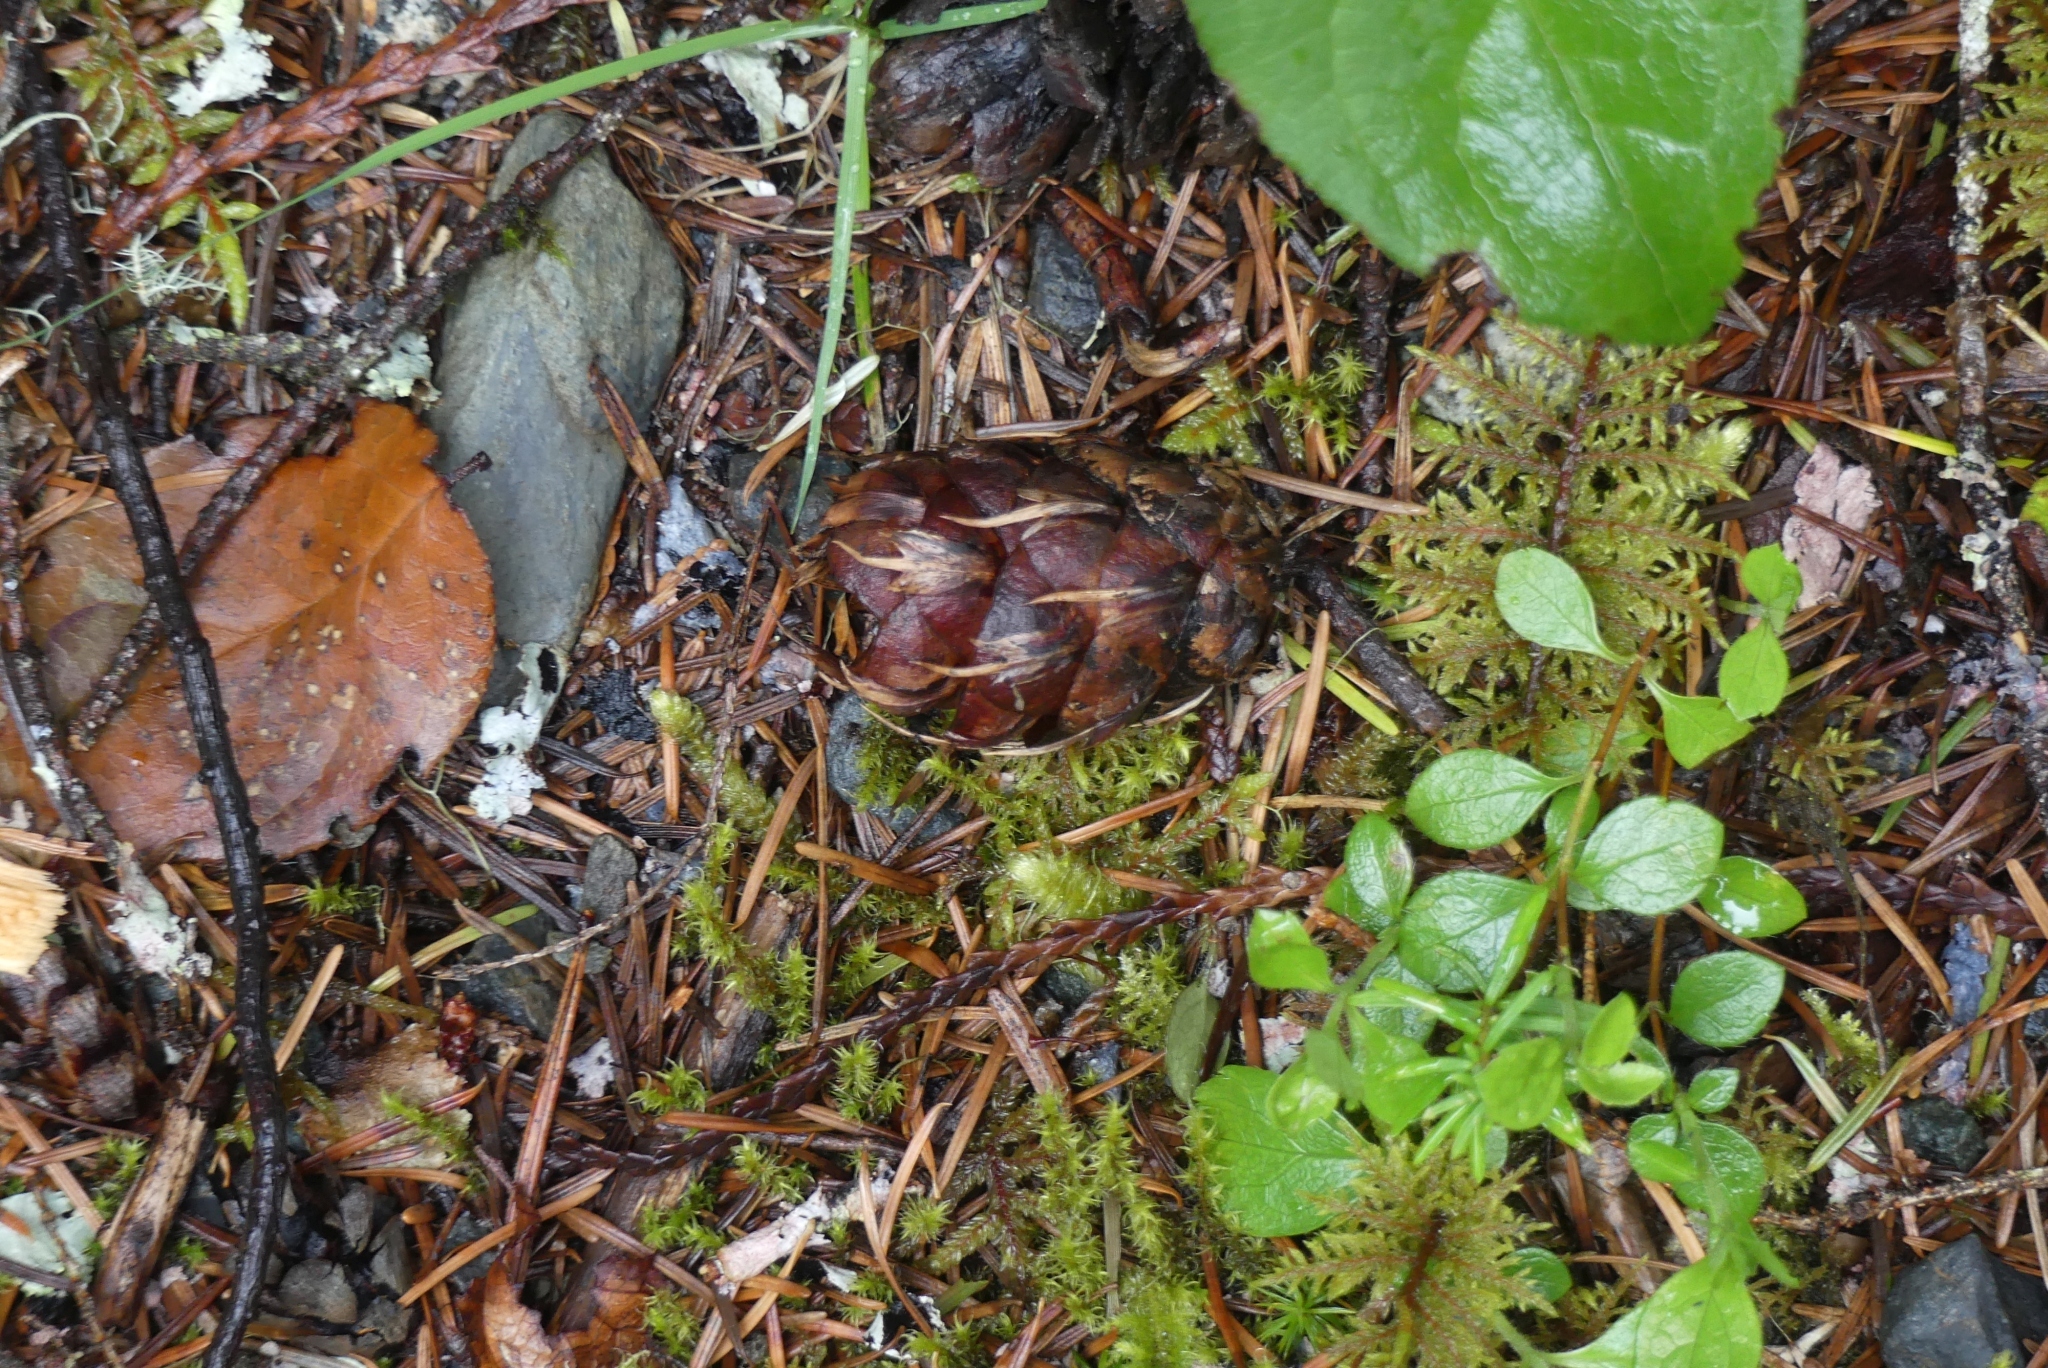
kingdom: Plantae
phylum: Tracheophyta
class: Pinopsida
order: Pinales
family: Pinaceae
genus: Pseudotsuga
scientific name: Pseudotsuga menziesii
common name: Douglas fir
